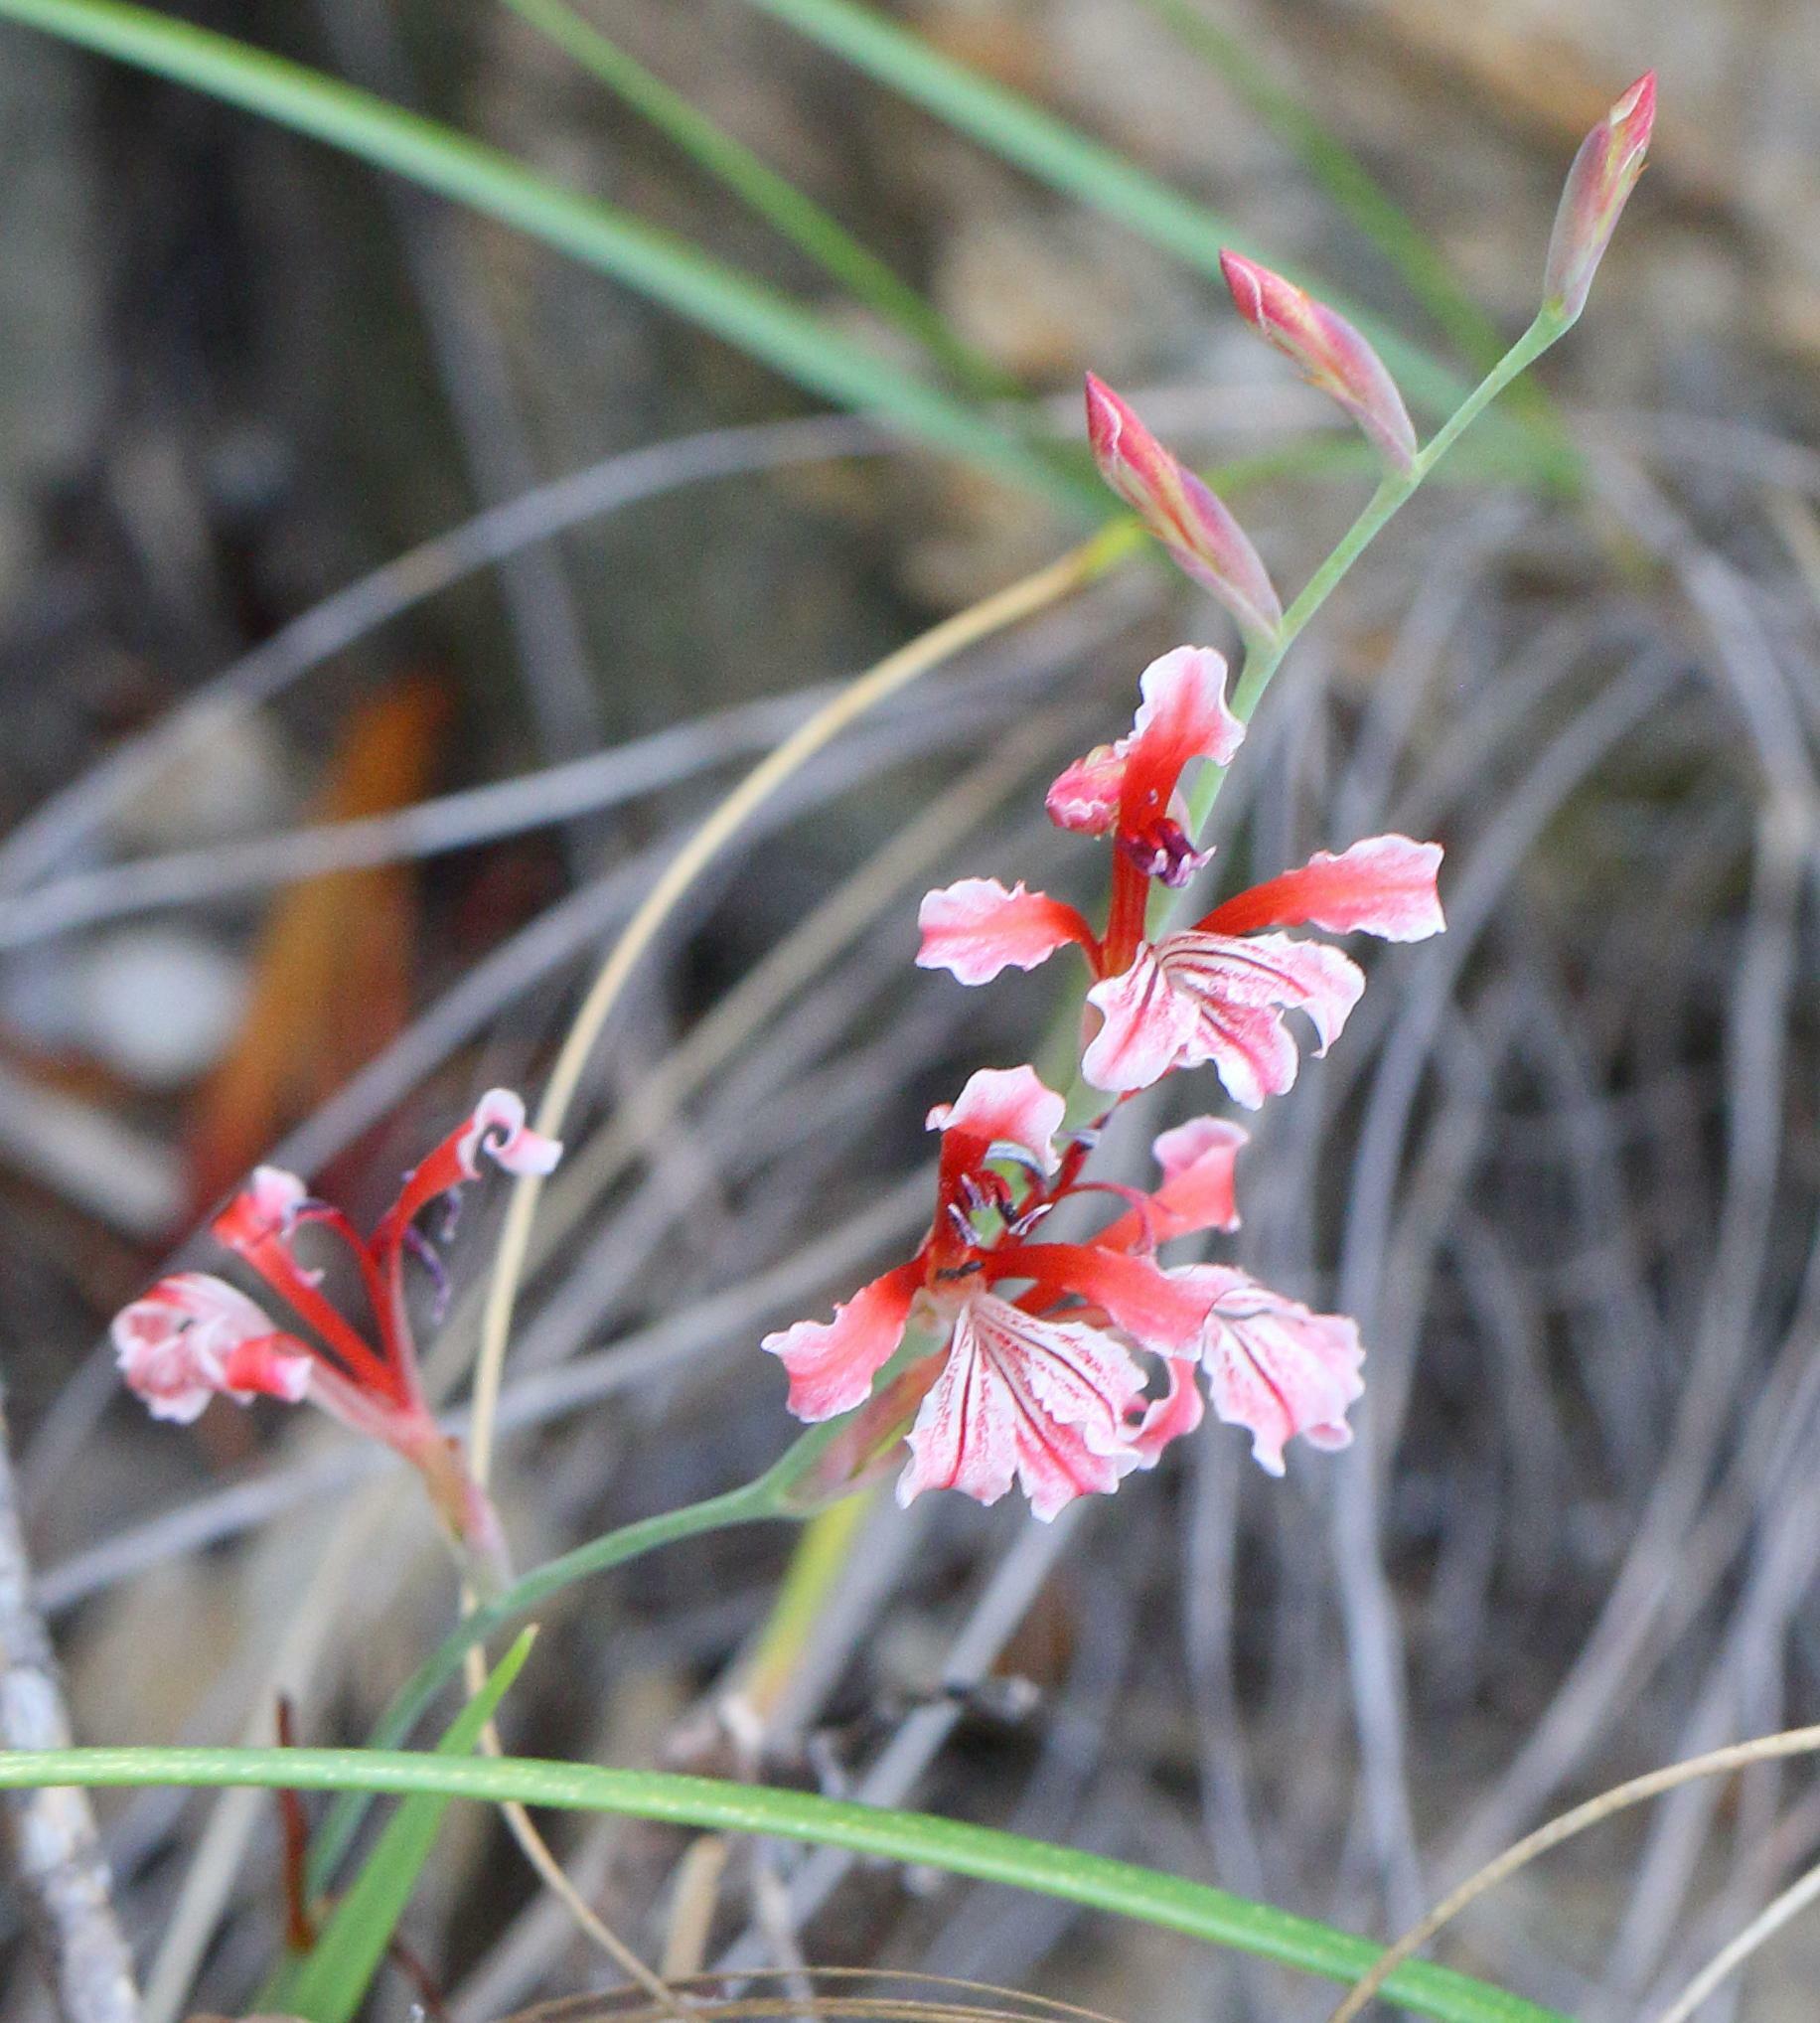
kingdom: Plantae
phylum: Tracheophyta
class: Liliopsida
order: Asparagales
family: Iridaceae
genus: Tritoniopsis
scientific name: Tritoniopsis ramosa
